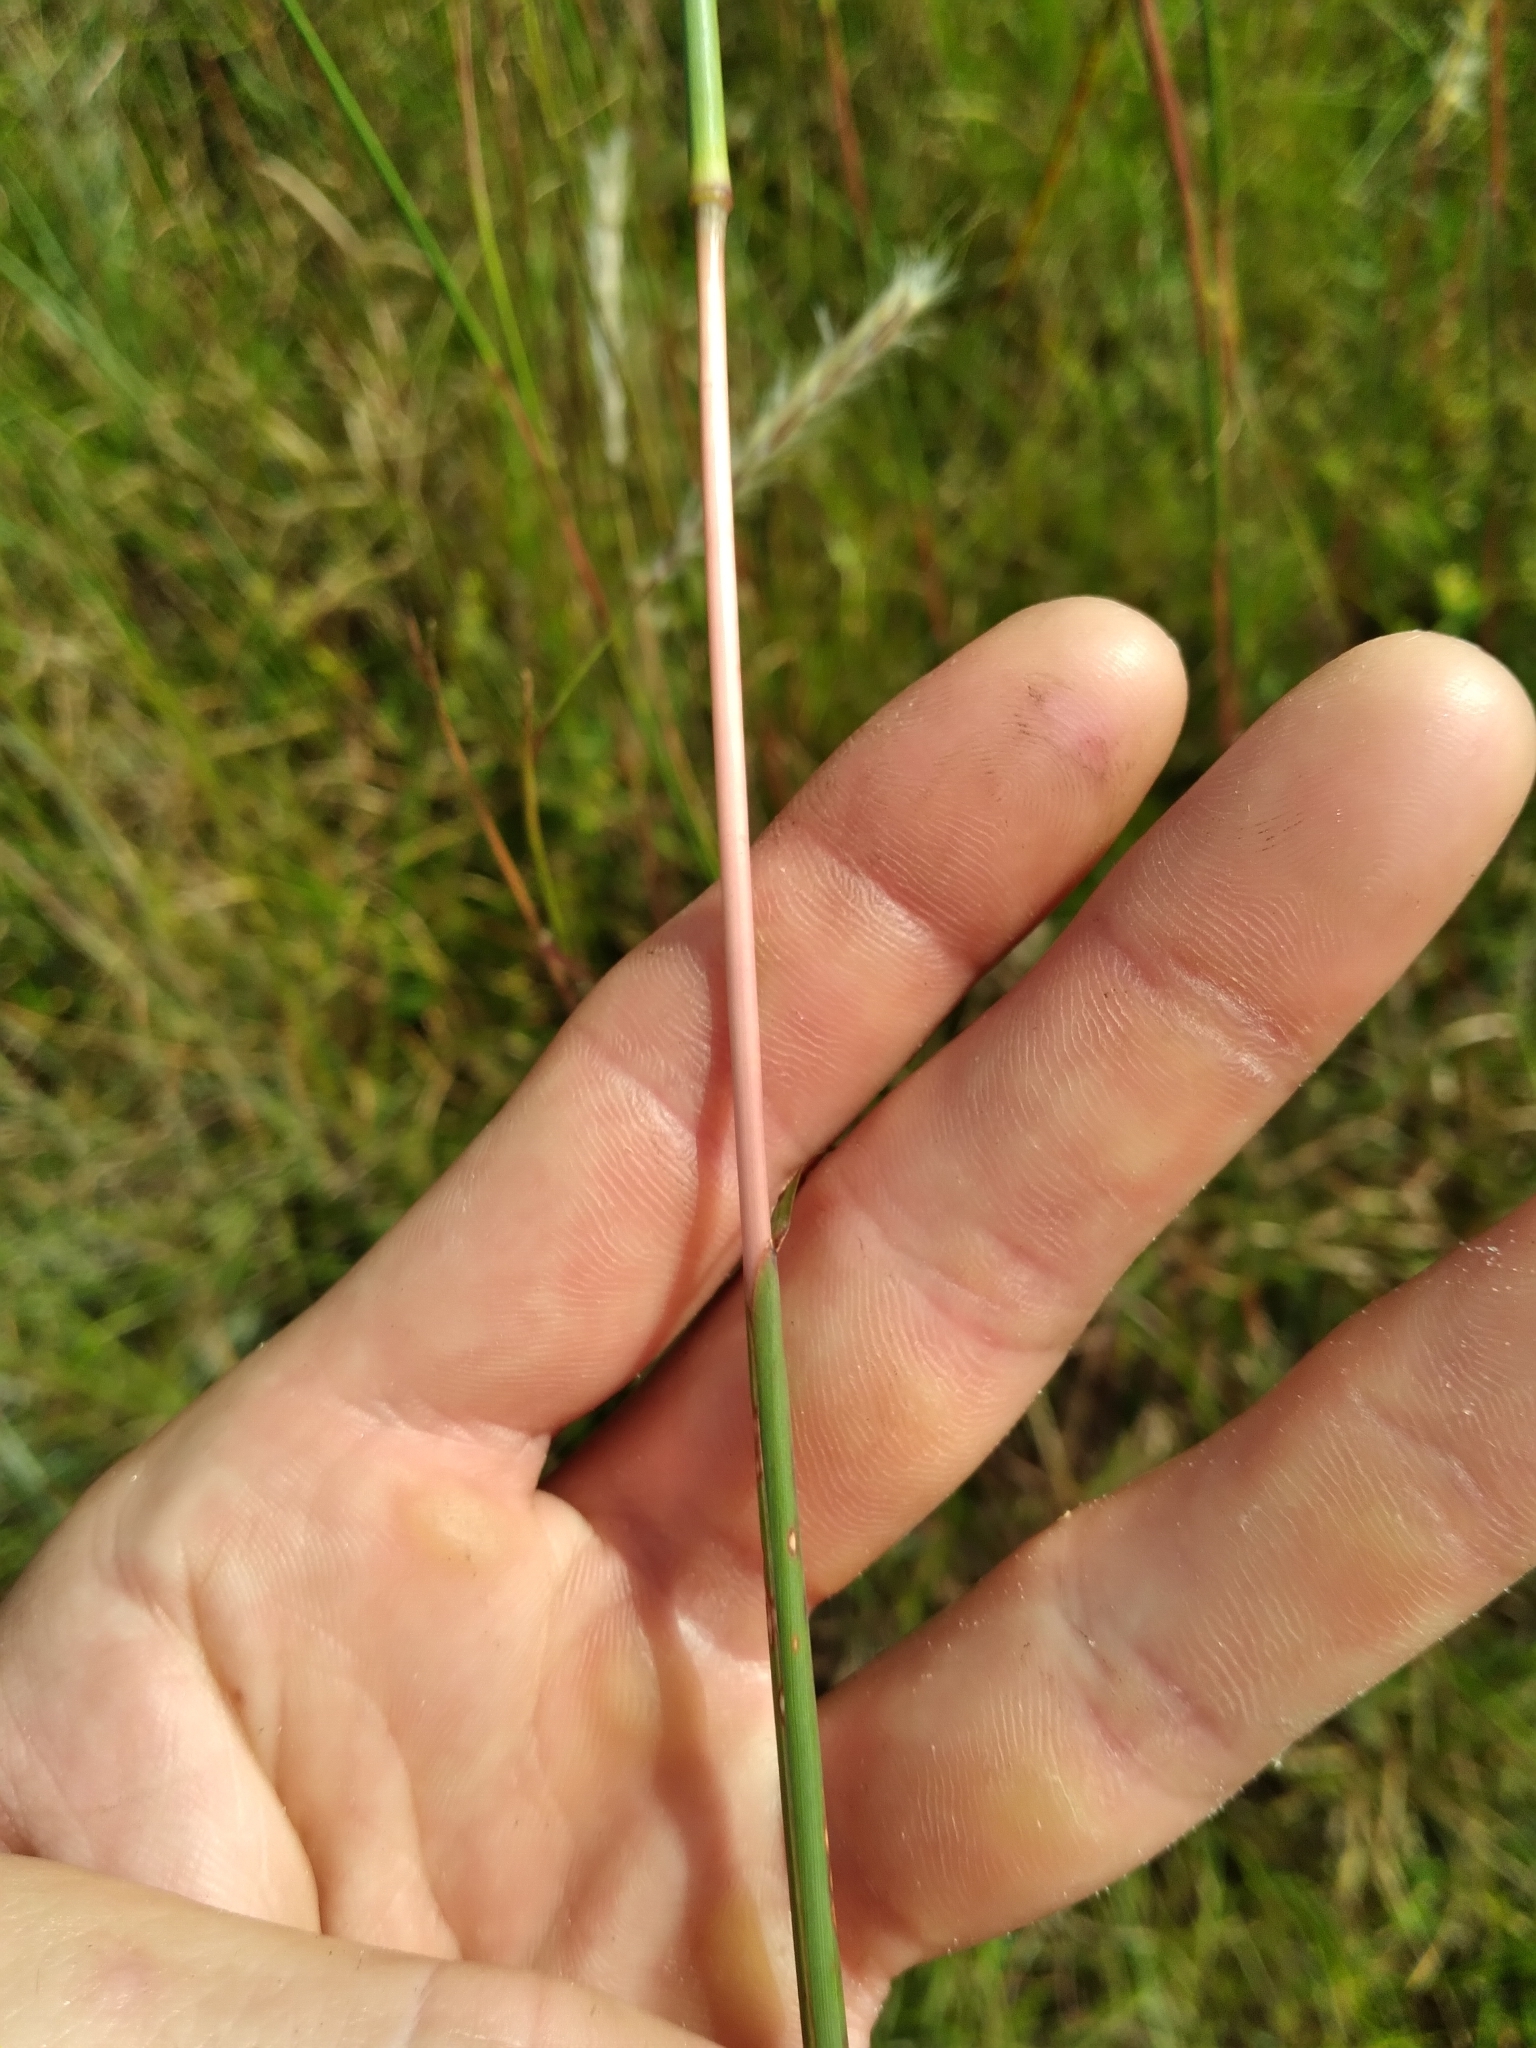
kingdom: Plantae
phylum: Tracheophyta
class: Liliopsida
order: Poales
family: Poaceae
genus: Andropogon
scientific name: Andropogon cabanisii
